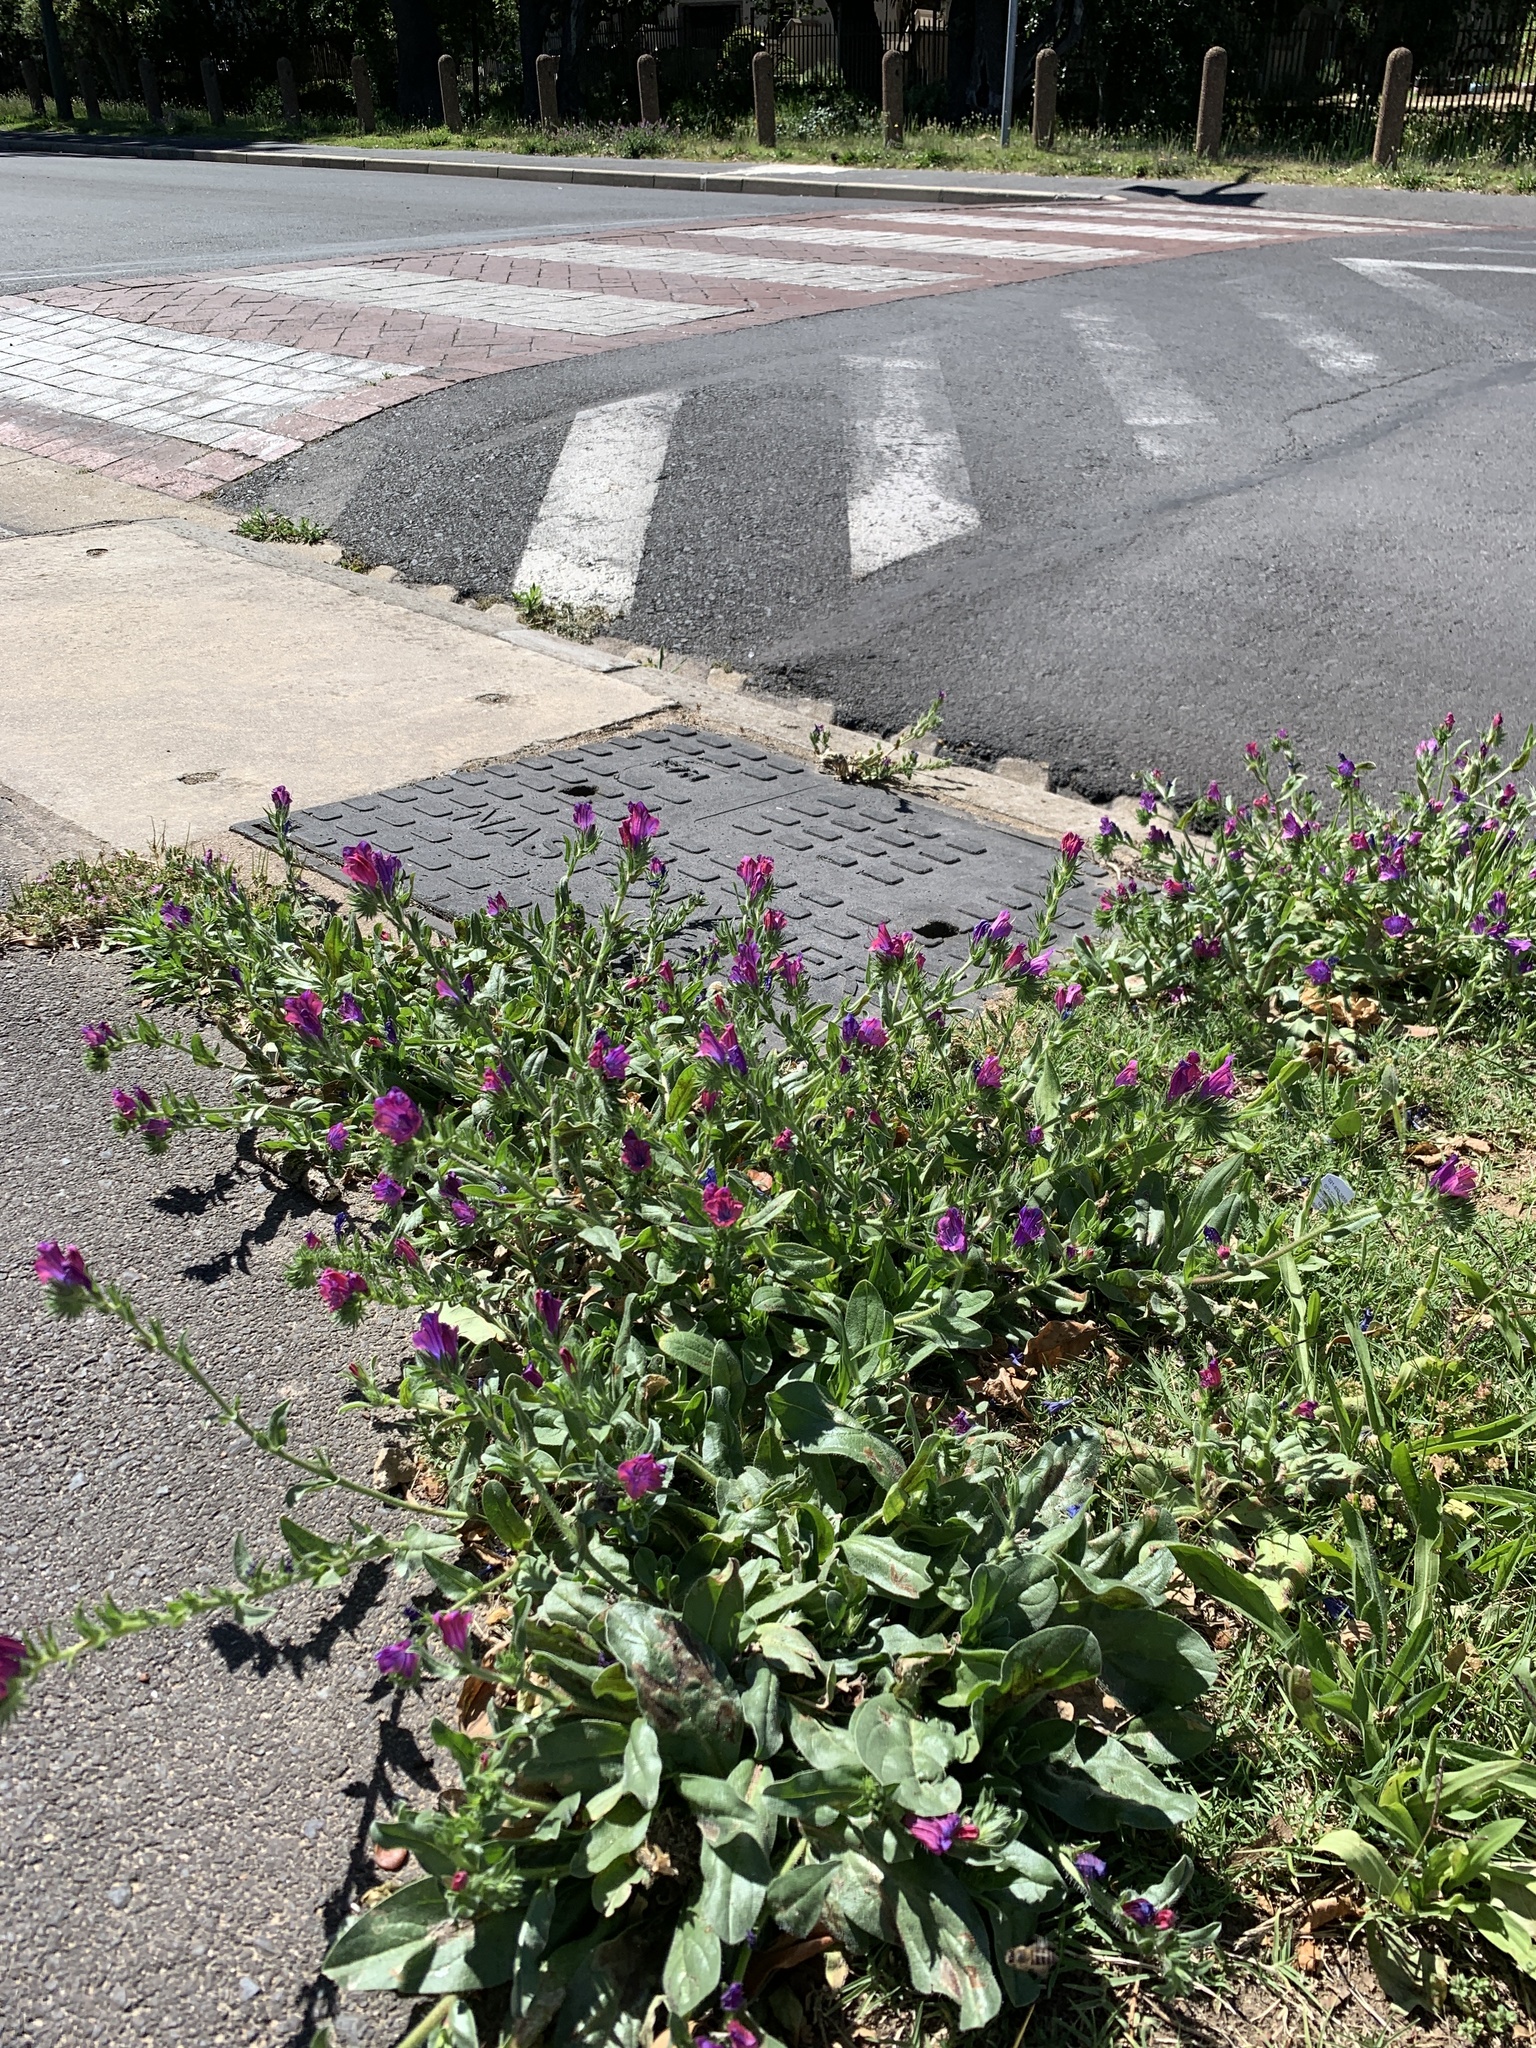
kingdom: Plantae
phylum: Tracheophyta
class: Magnoliopsida
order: Boraginales
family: Boraginaceae
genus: Echium
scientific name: Echium plantagineum
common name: Purple viper's-bugloss
